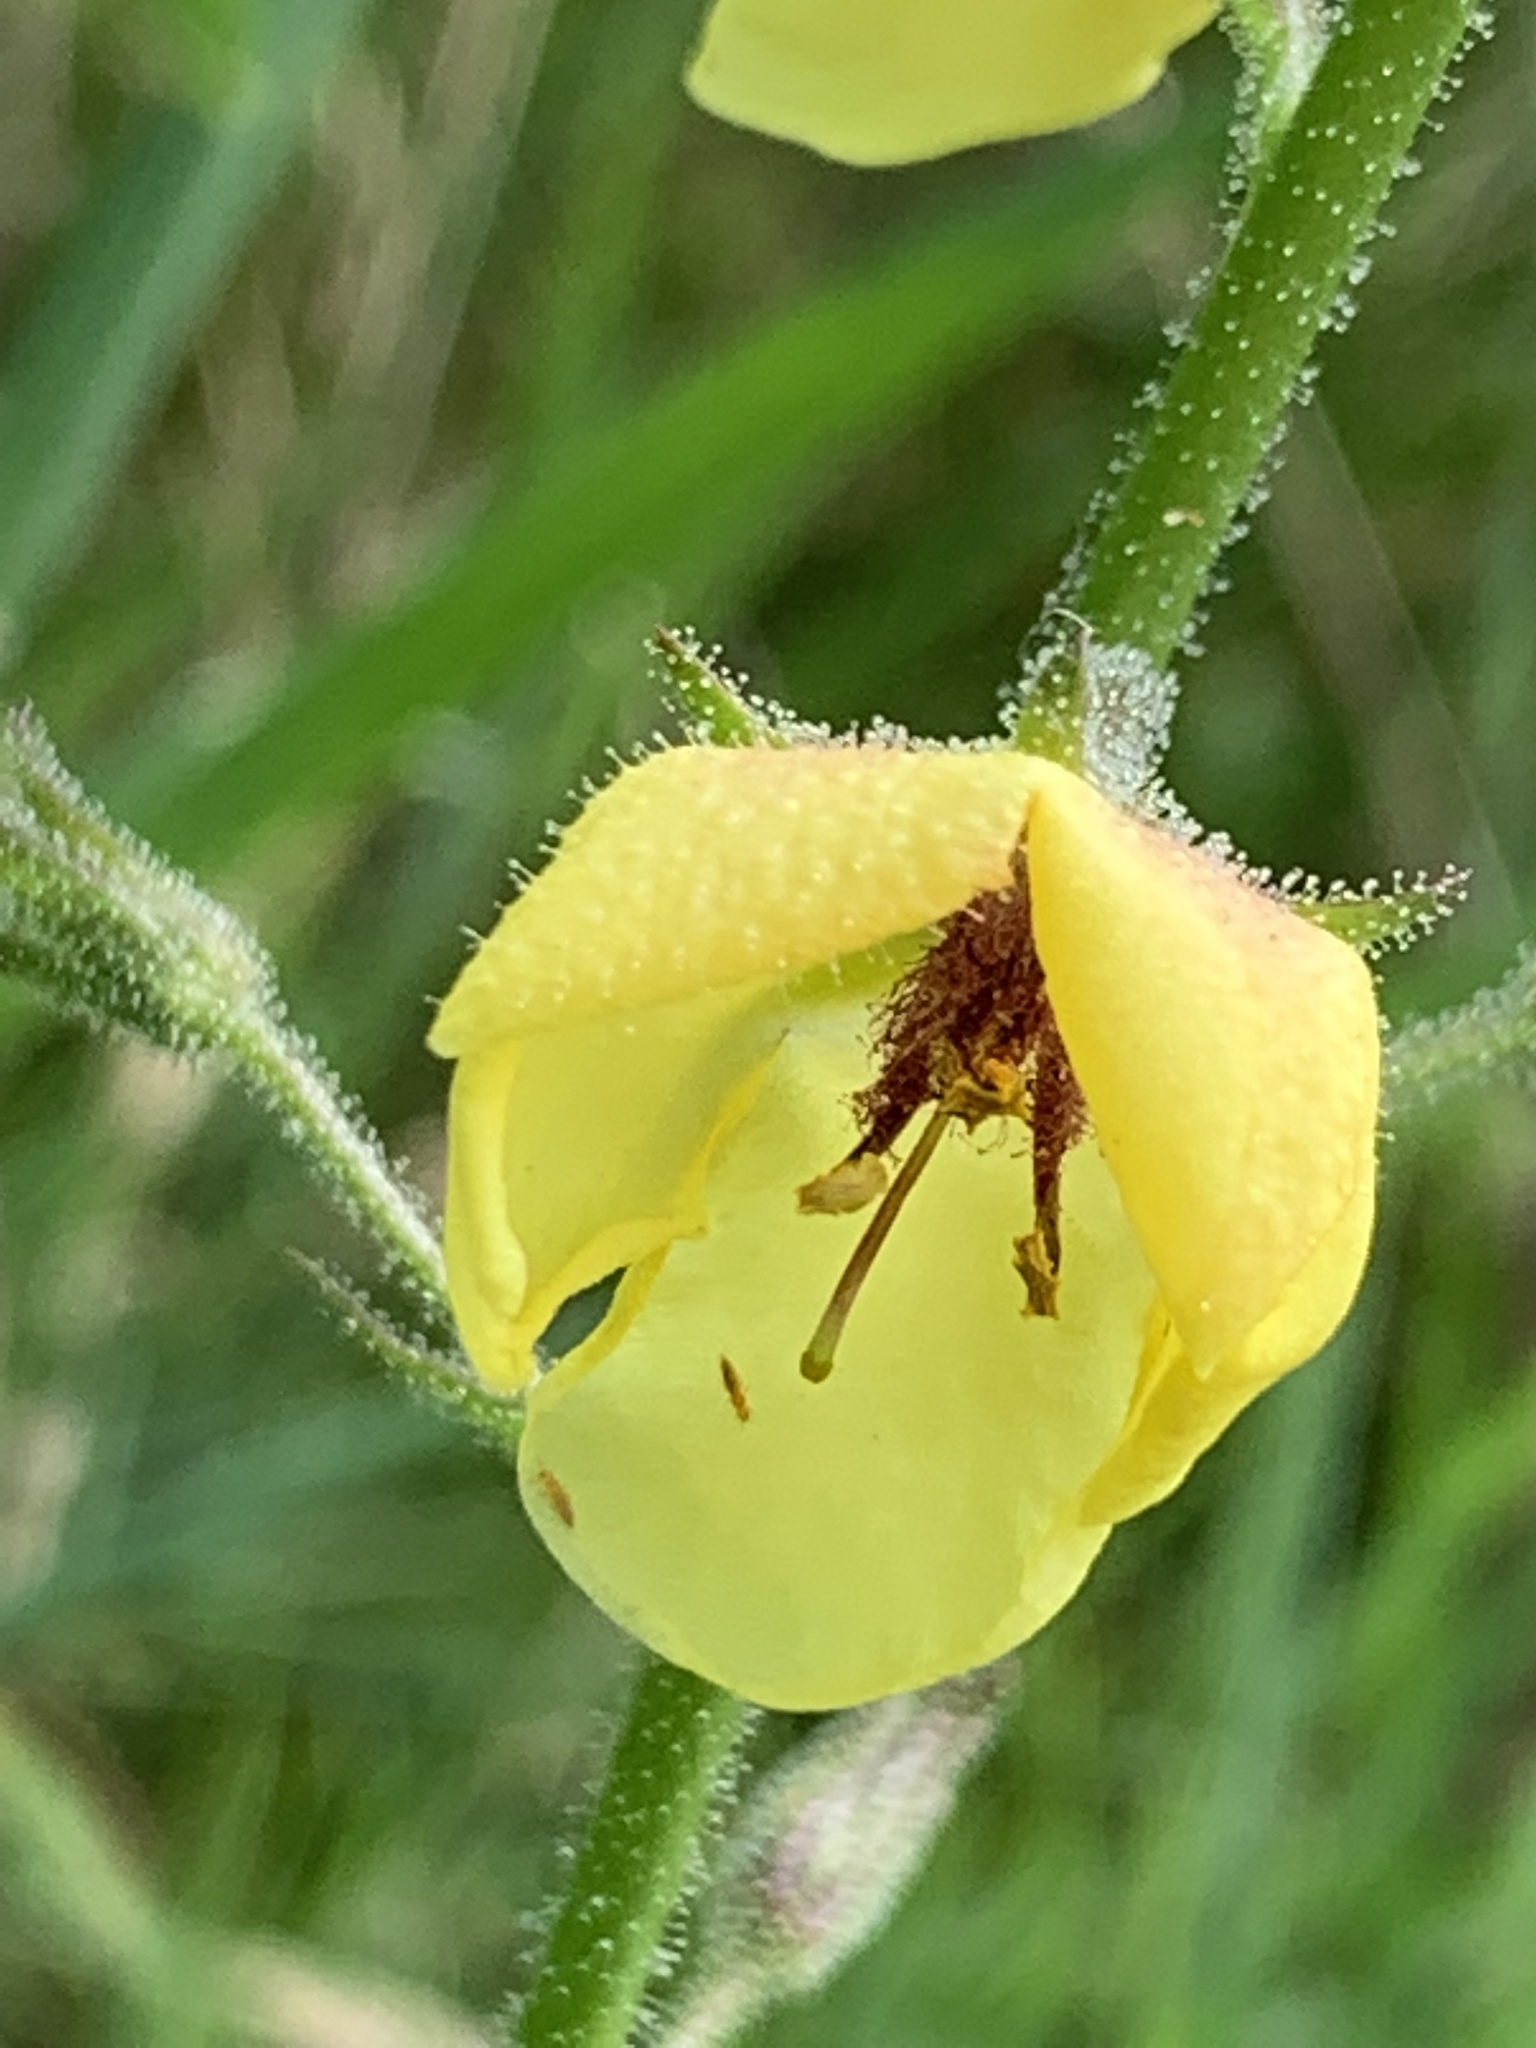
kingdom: Plantae
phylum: Tracheophyta
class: Magnoliopsida
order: Lamiales
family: Scrophulariaceae
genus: Verbascum
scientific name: Verbascum blattaria
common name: Moth mullein
